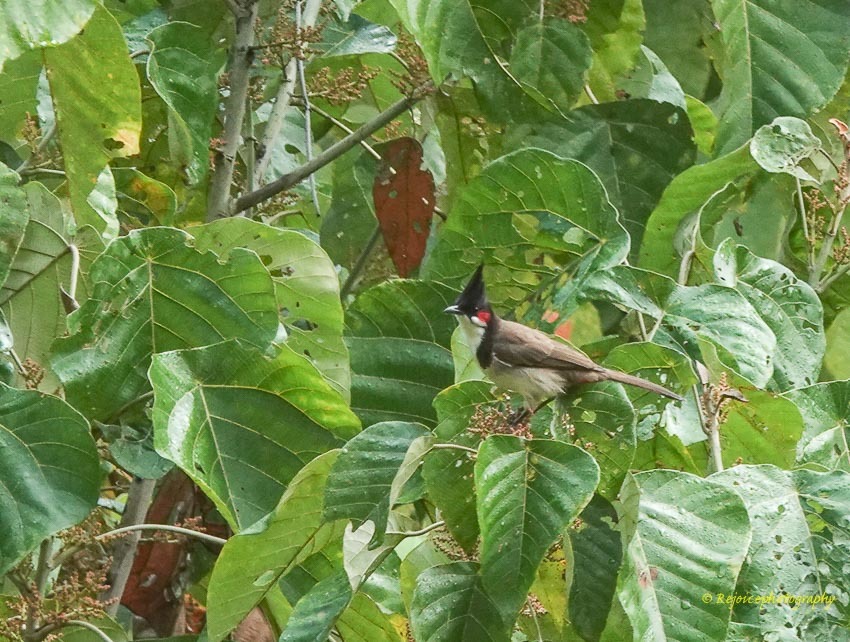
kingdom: Animalia
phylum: Chordata
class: Aves
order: Passeriformes
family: Pycnonotidae
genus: Pycnonotus
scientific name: Pycnonotus jocosus
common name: Red-whiskered bulbul
